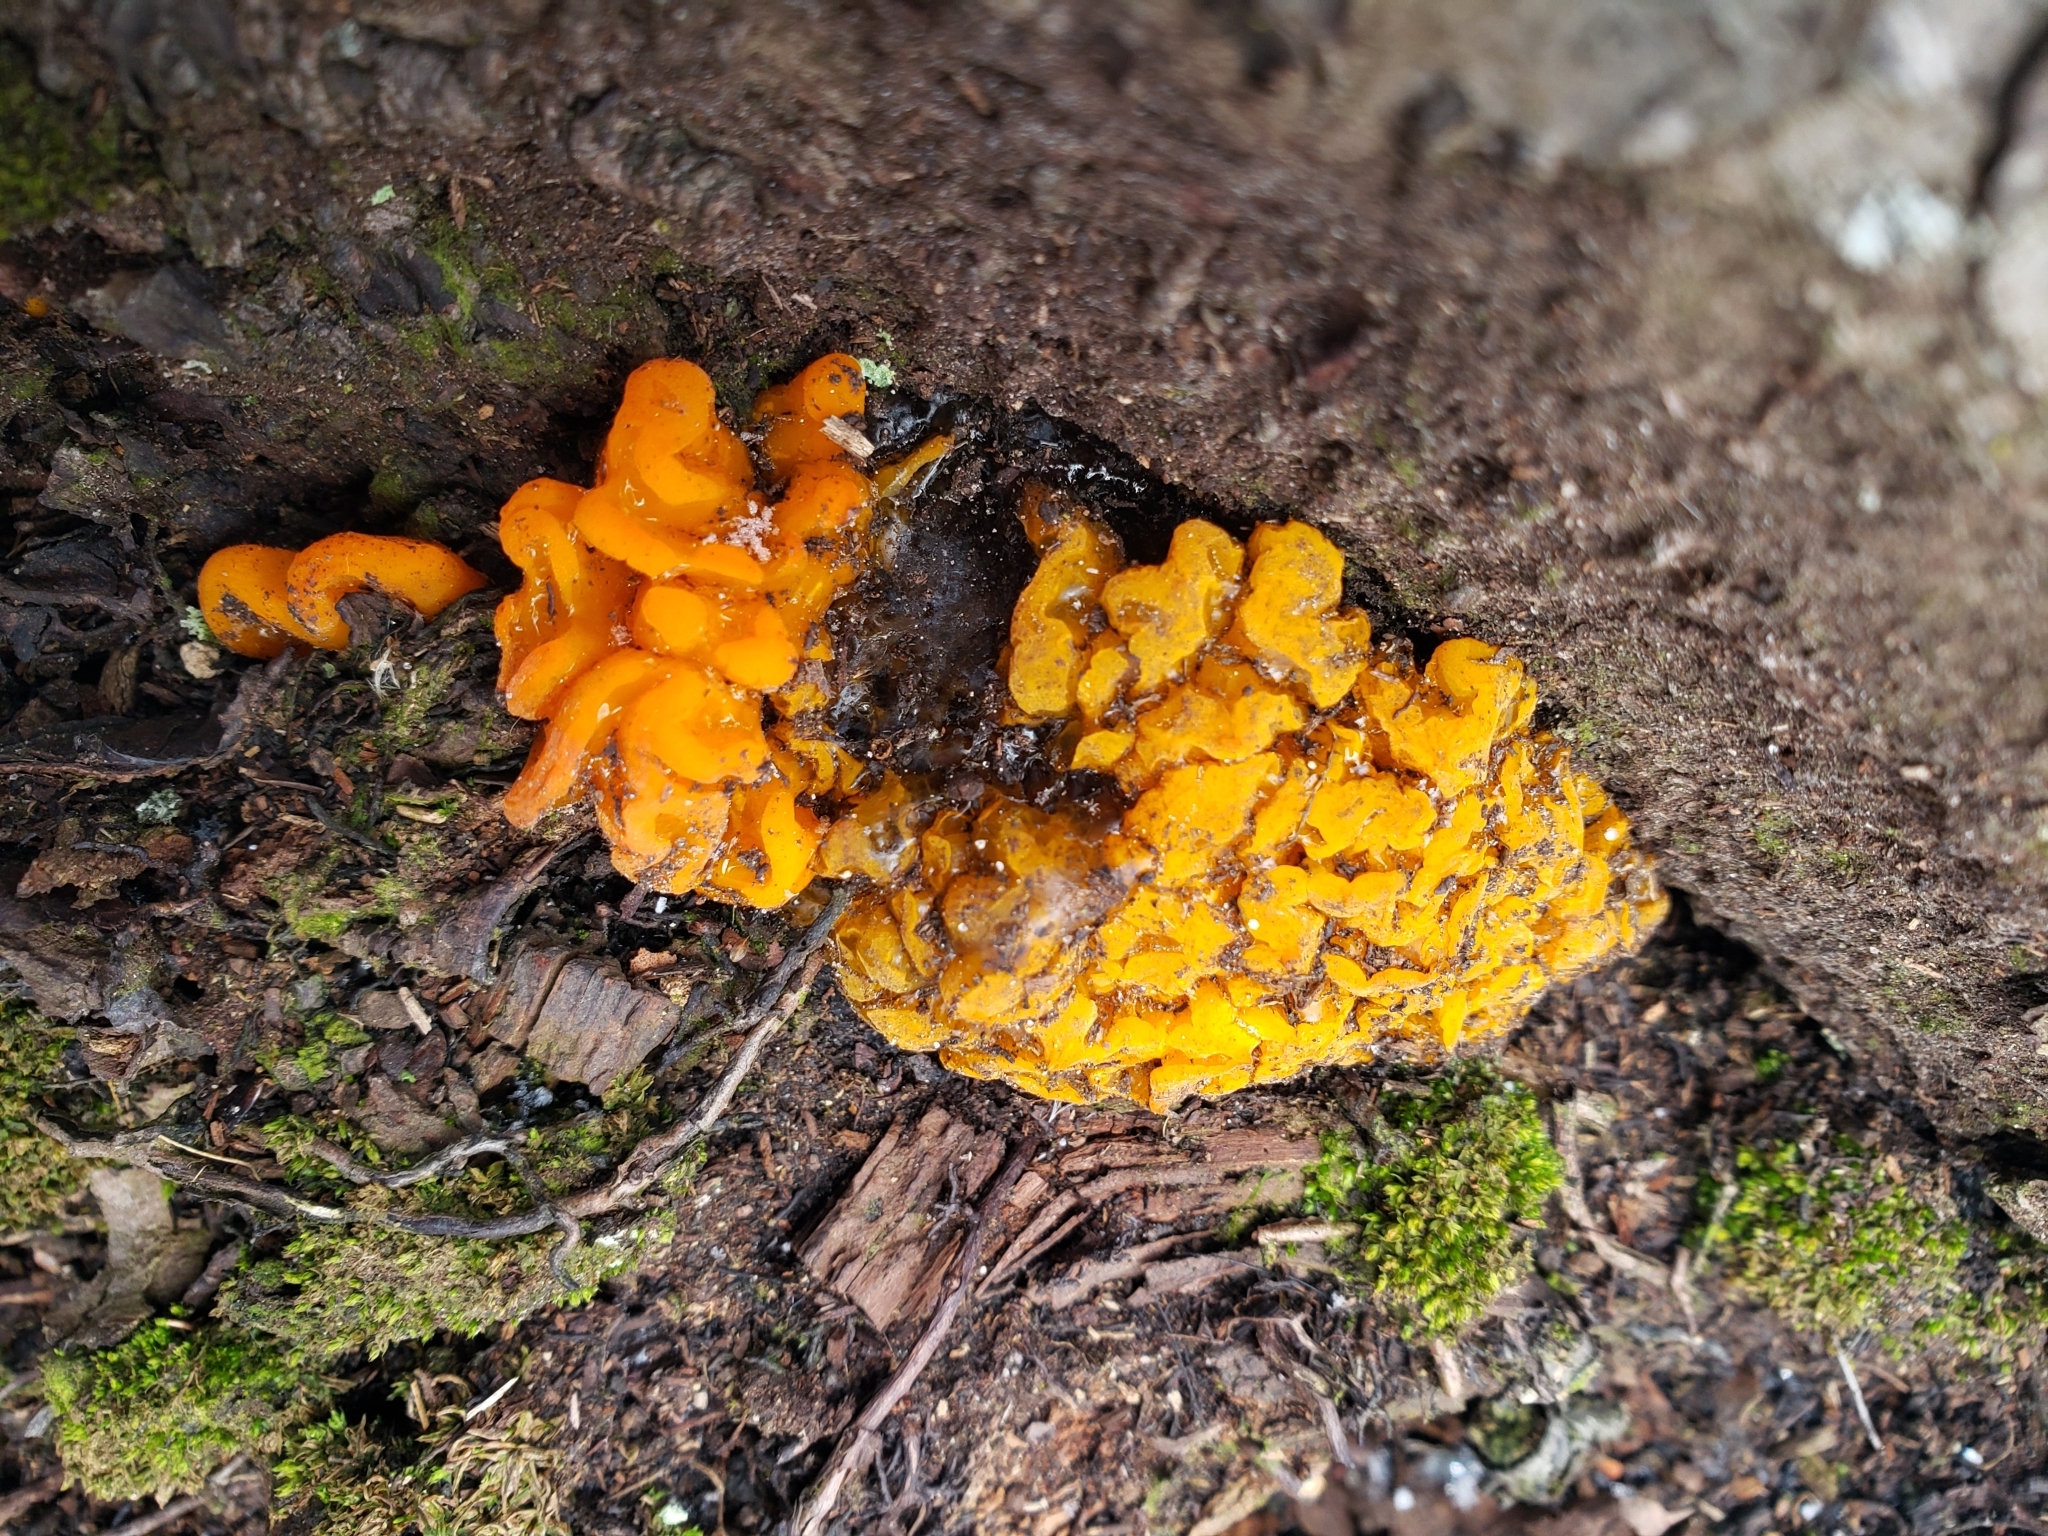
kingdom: Fungi
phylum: Basidiomycota
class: Dacrymycetes
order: Dacrymycetales
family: Dacrymycetaceae
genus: Dacrymyces
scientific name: Dacrymyces chrysospermus
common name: Orange jelly spot
